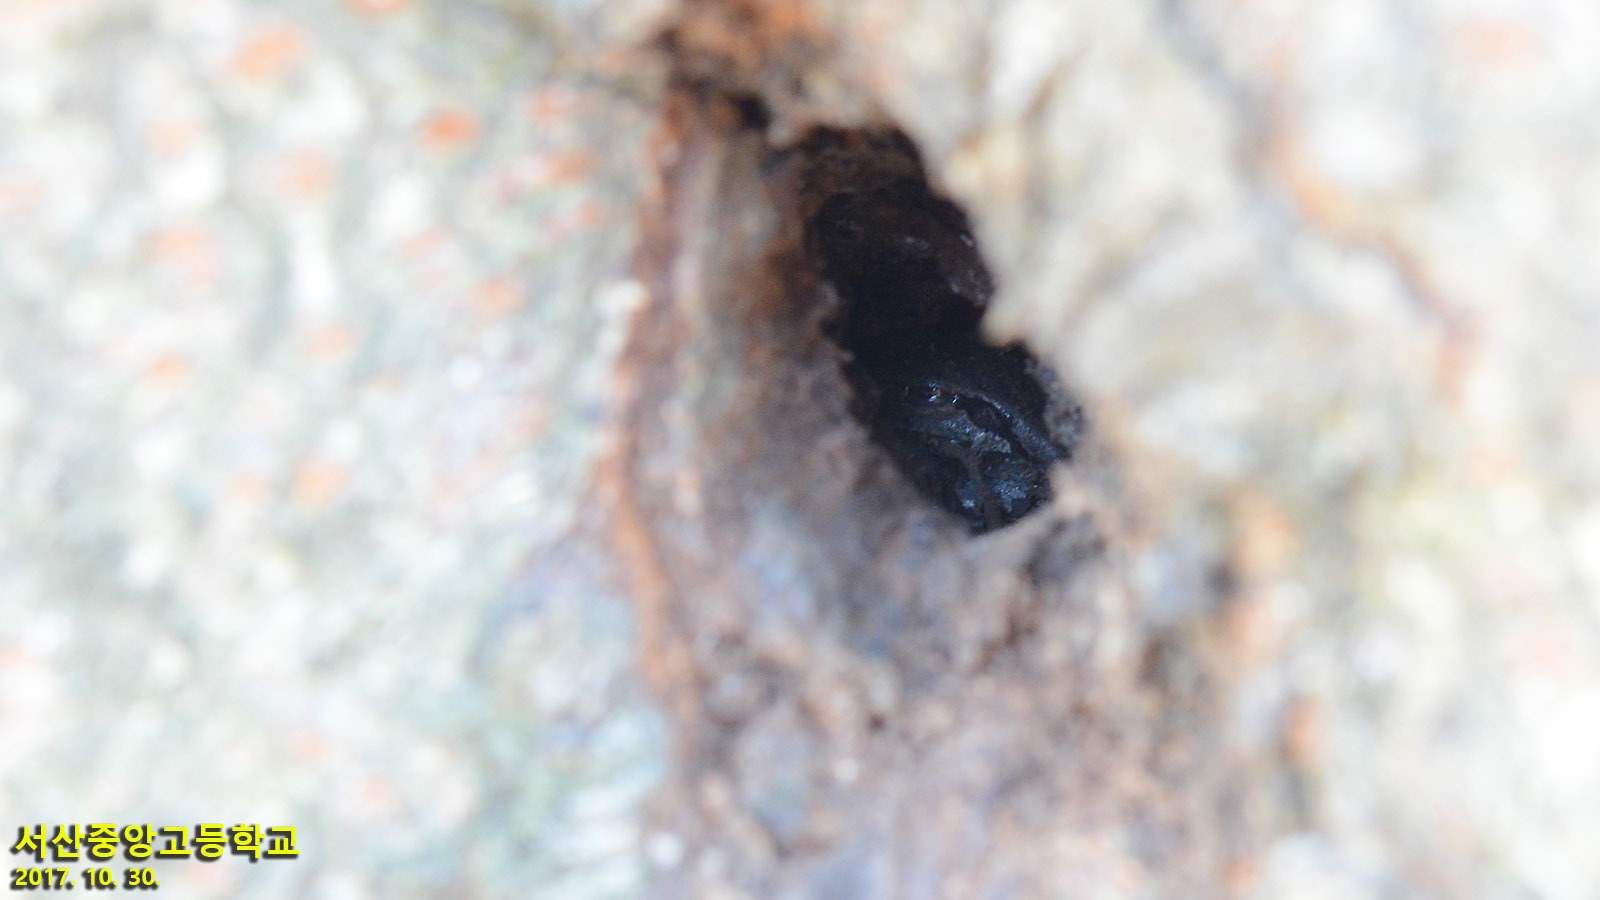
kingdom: Animalia
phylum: Chordata
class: Amphibia
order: Anura
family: Hylidae
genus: Dryophytes
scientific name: Dryophytes japonicus
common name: Japanese treefrog
